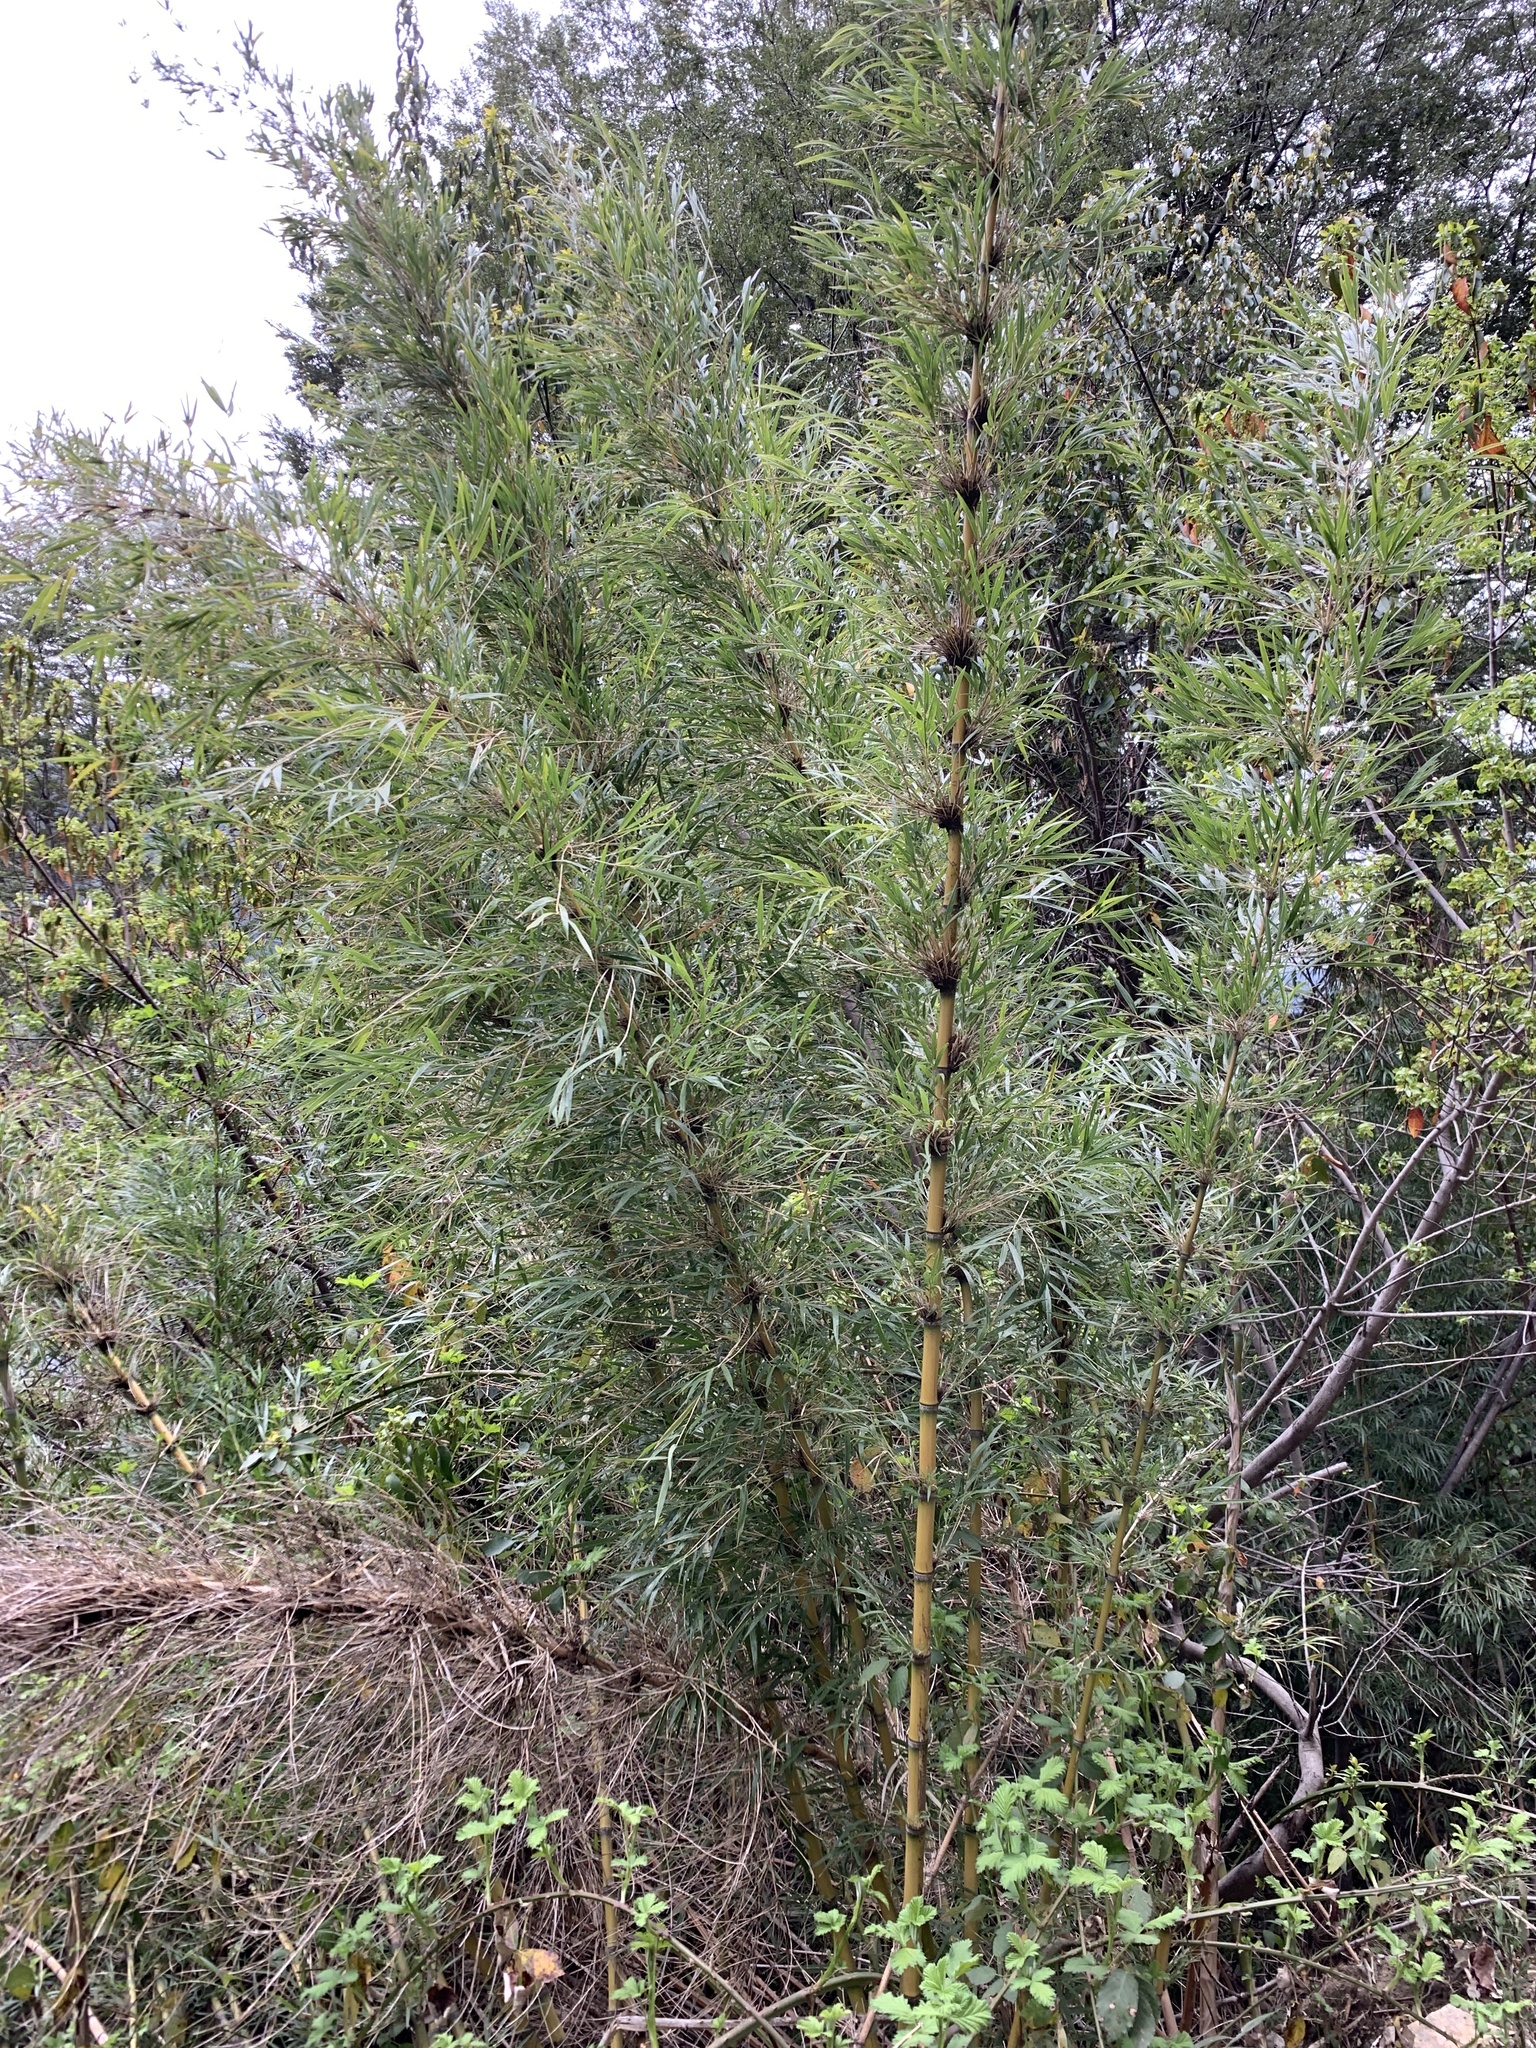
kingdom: Plantae
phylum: Tracheophyta
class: Liliopsida
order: Poales
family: Poaceae
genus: Chusquea
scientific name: Chusquea culeou
